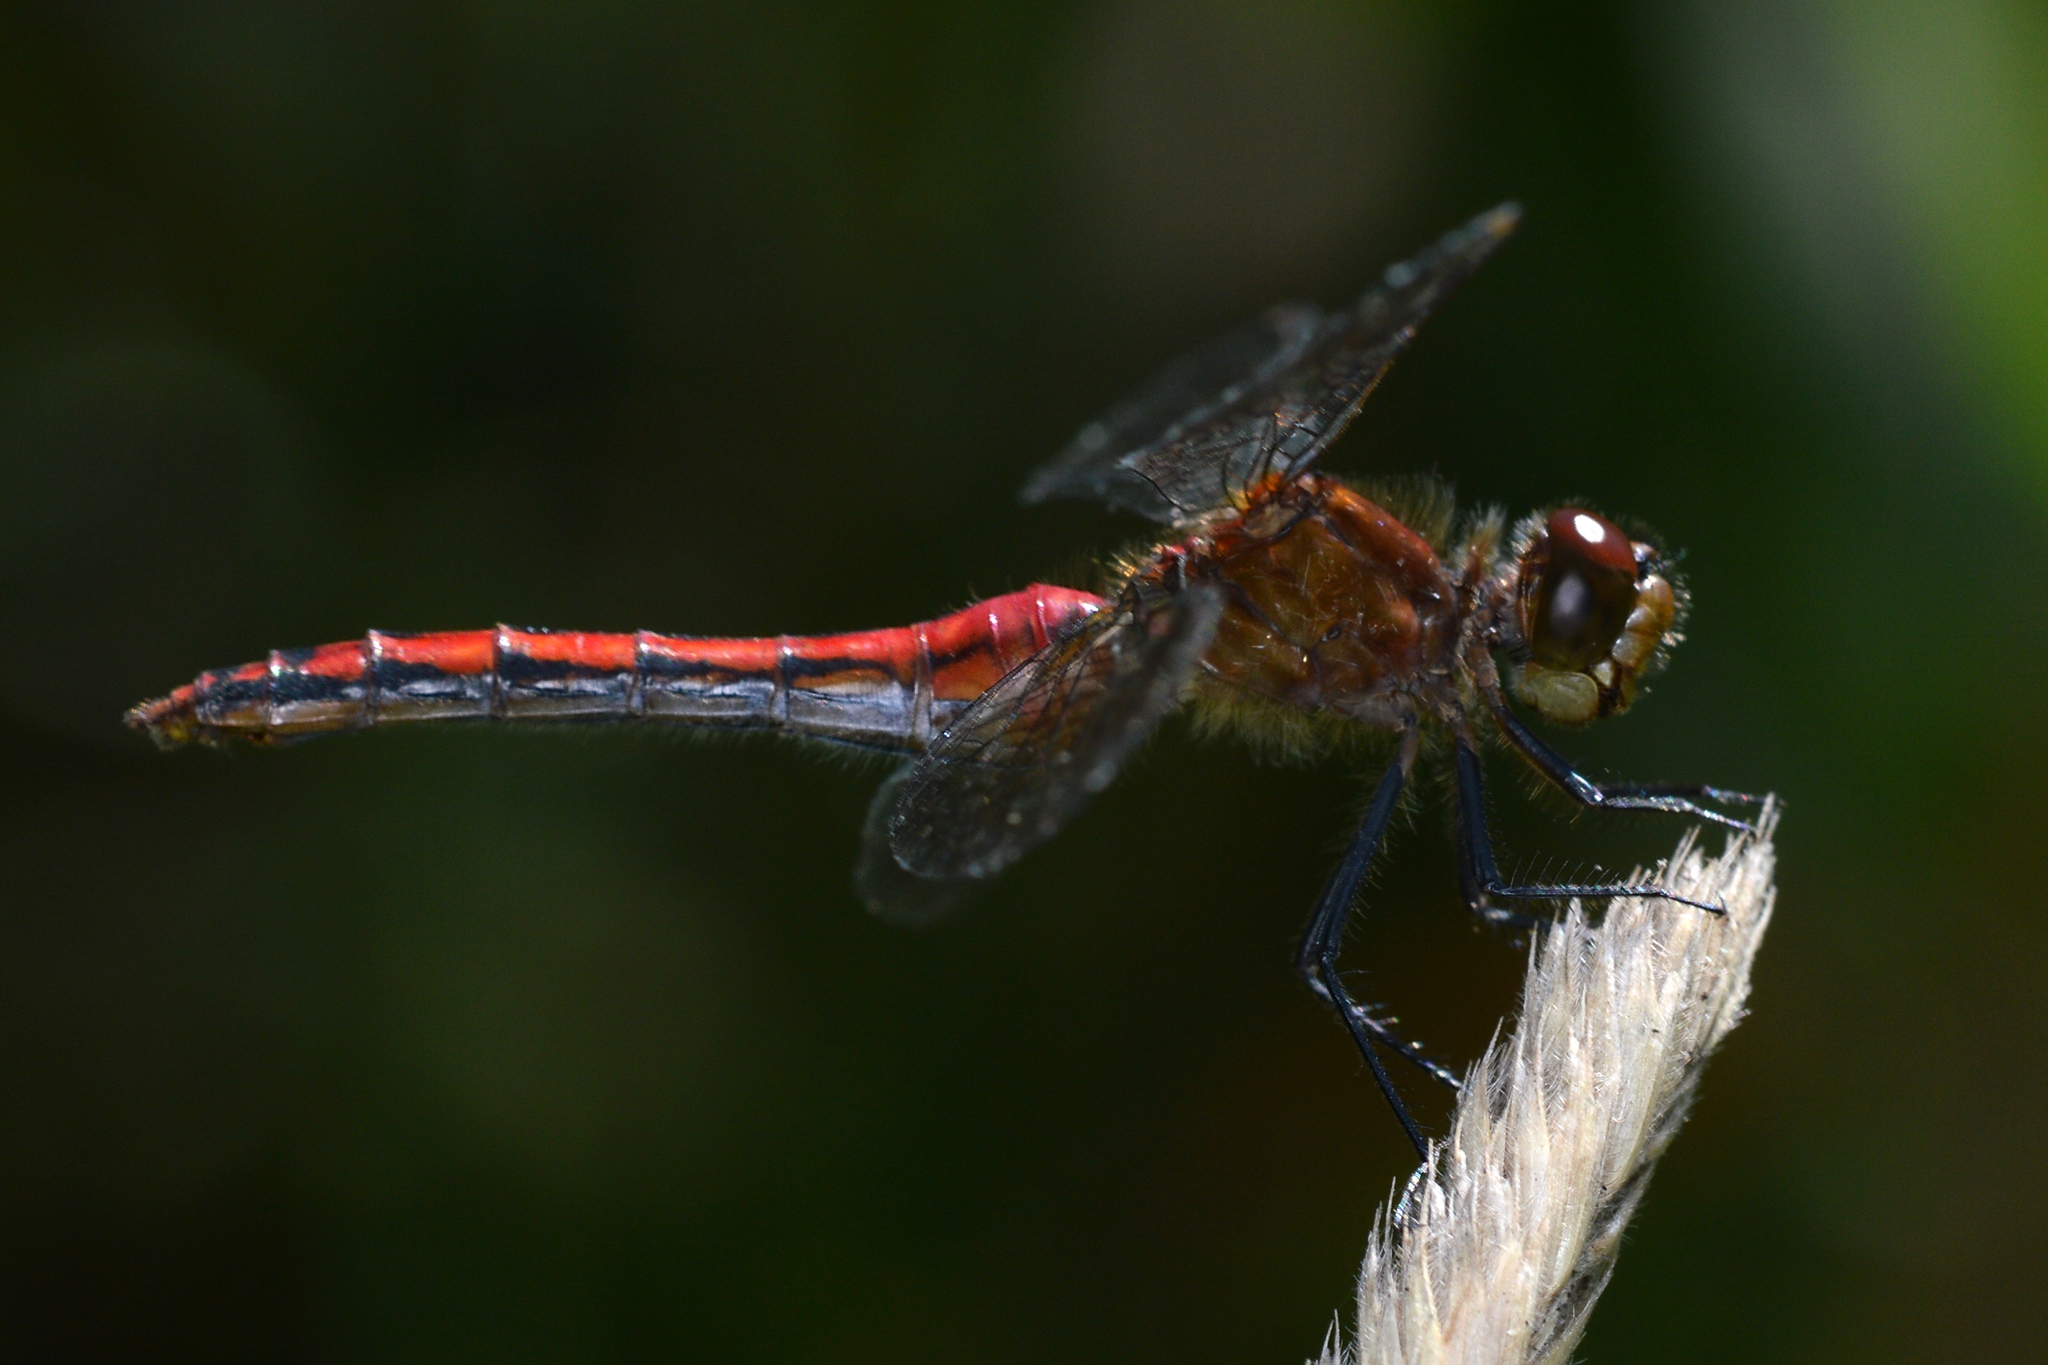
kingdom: Animalia
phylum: Arthropoda
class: Insecta
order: Odonata
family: Libellulidae
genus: Sympetrum
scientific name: Sympetrum
